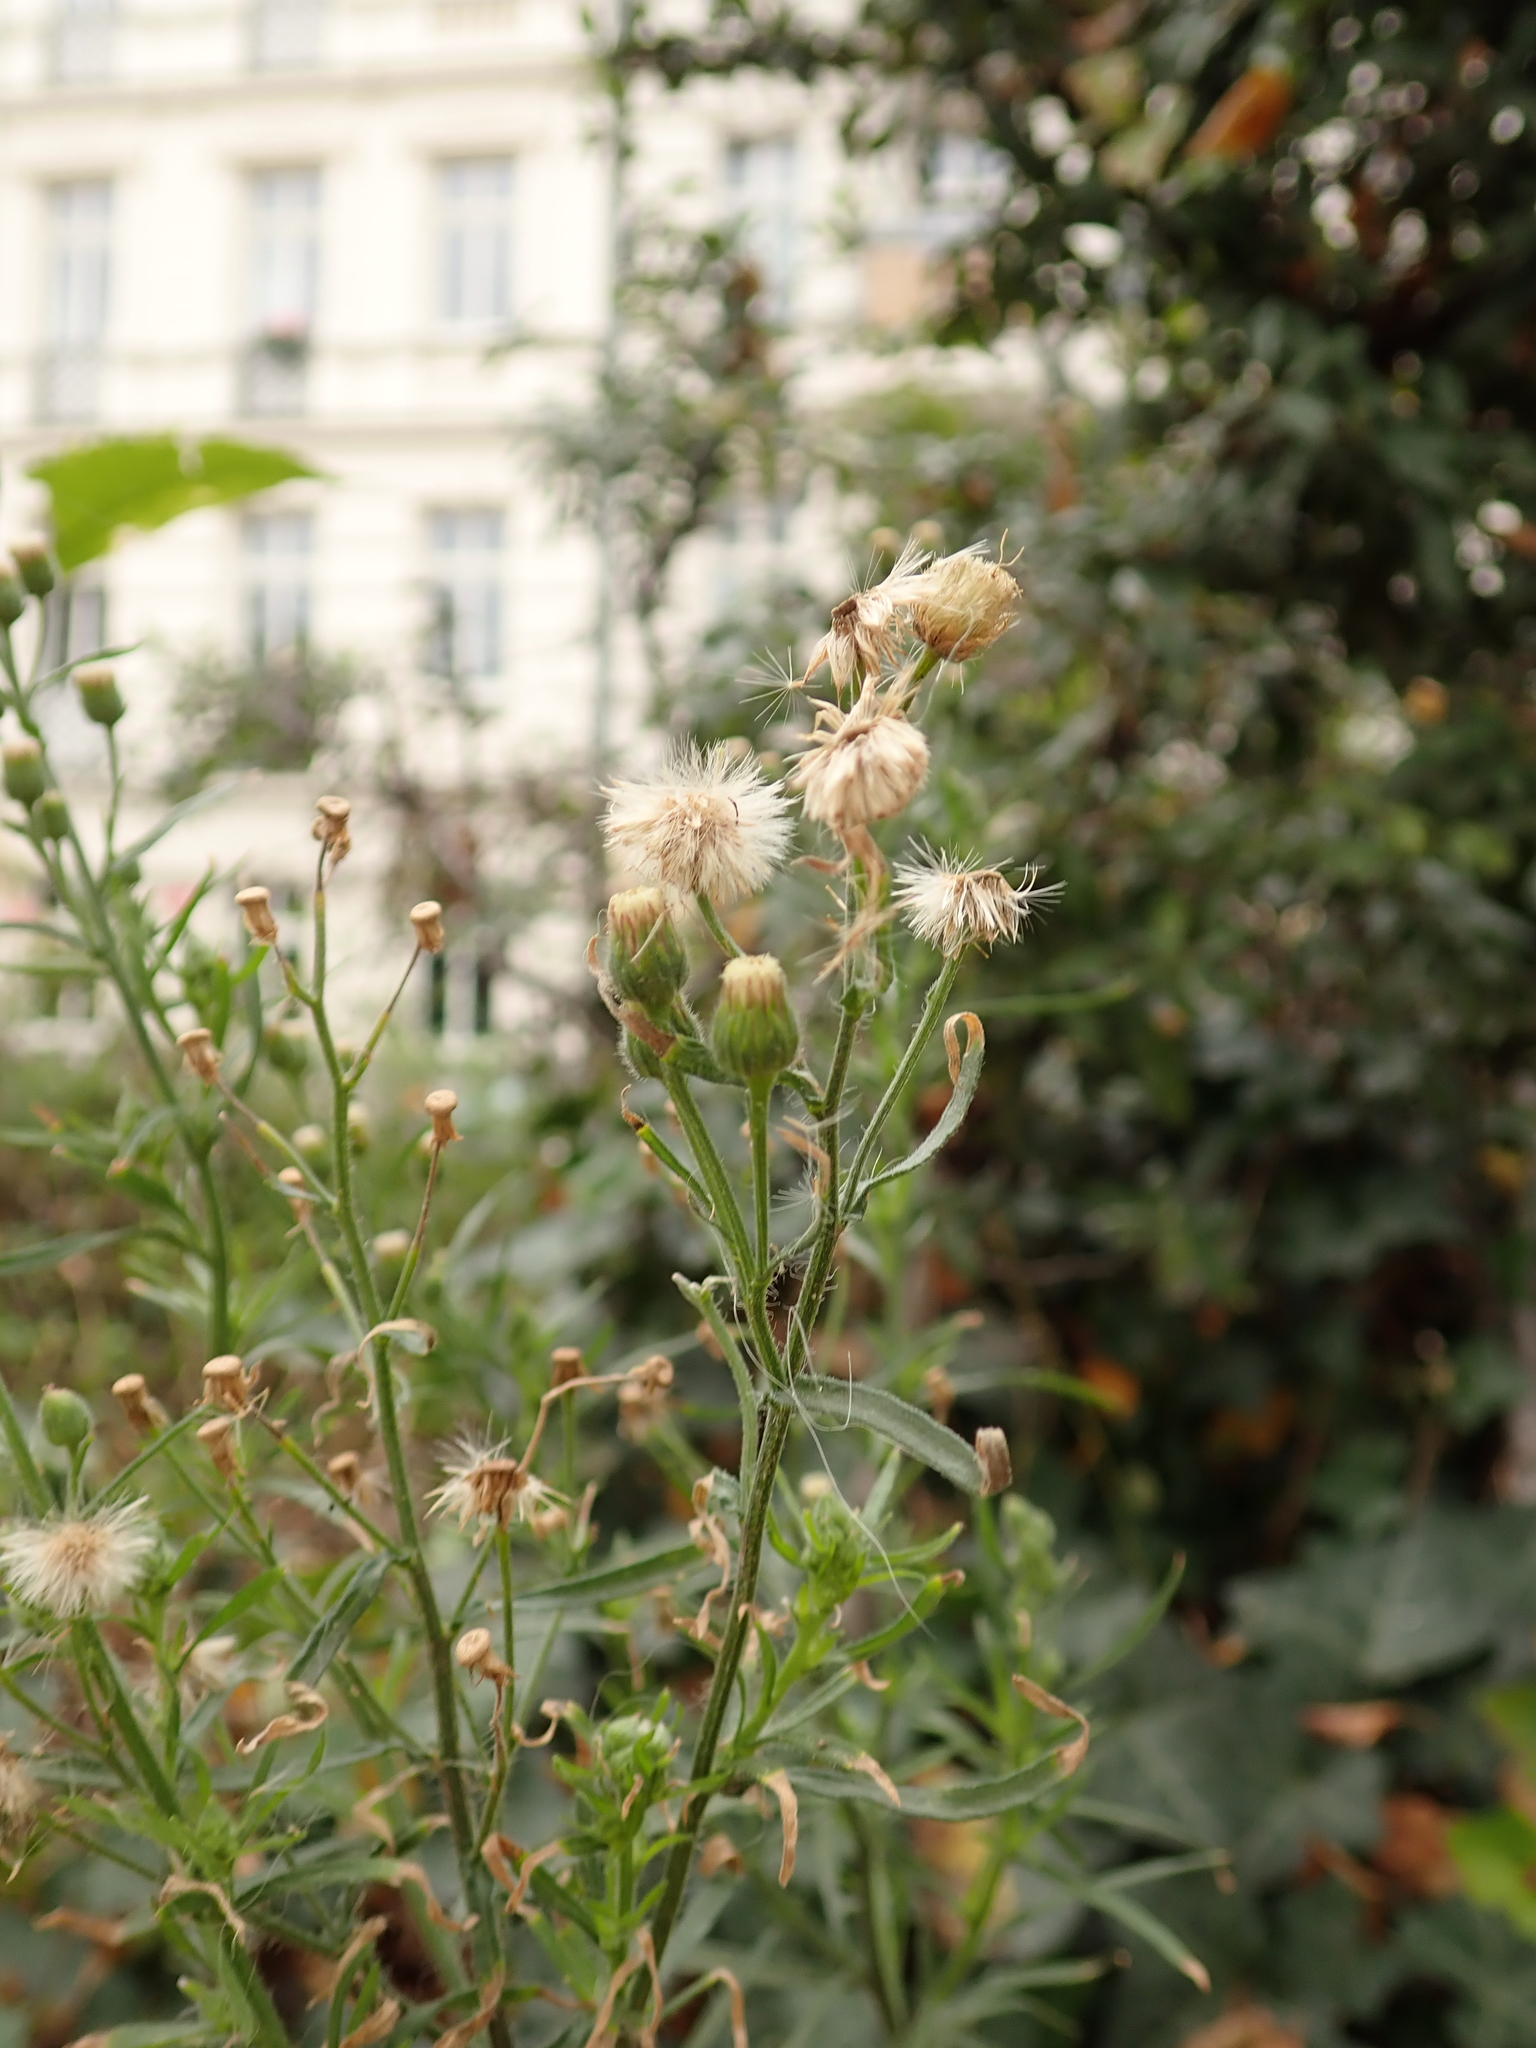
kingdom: Plantae
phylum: Tracheophyta
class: Magnoliopsida
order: Asterales
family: Asteraceae
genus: Erigeron
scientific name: Erigeron bonariensis
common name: Argentine fleabane
